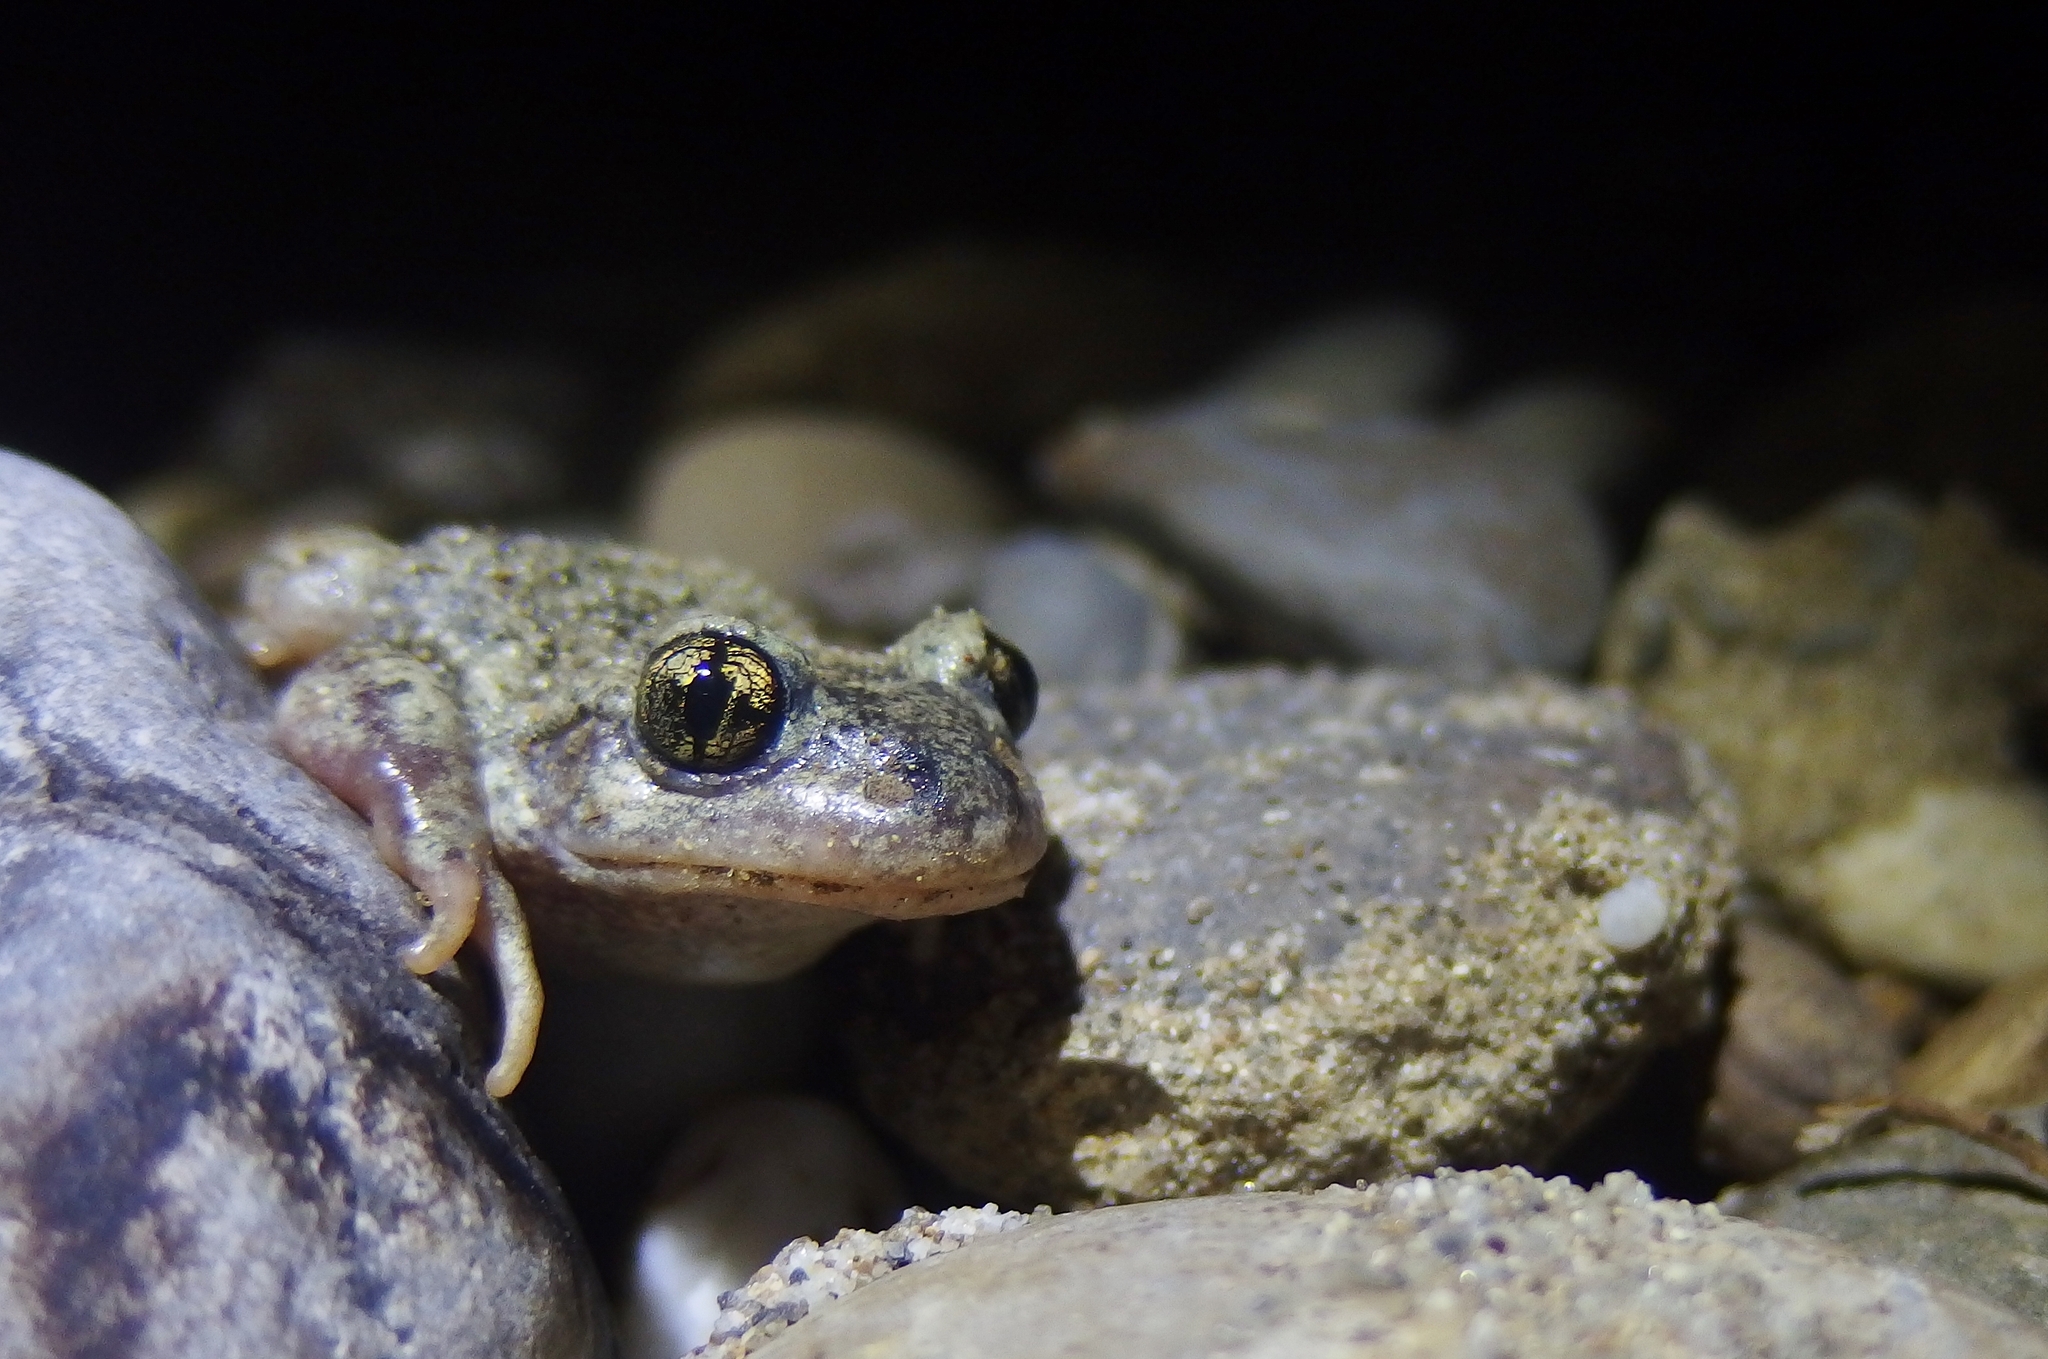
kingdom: Animalia
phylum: Chordata
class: Amphibia
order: Anura
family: Alytidae
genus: Alytes
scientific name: Alytes obstetricans
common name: Midwife toad
